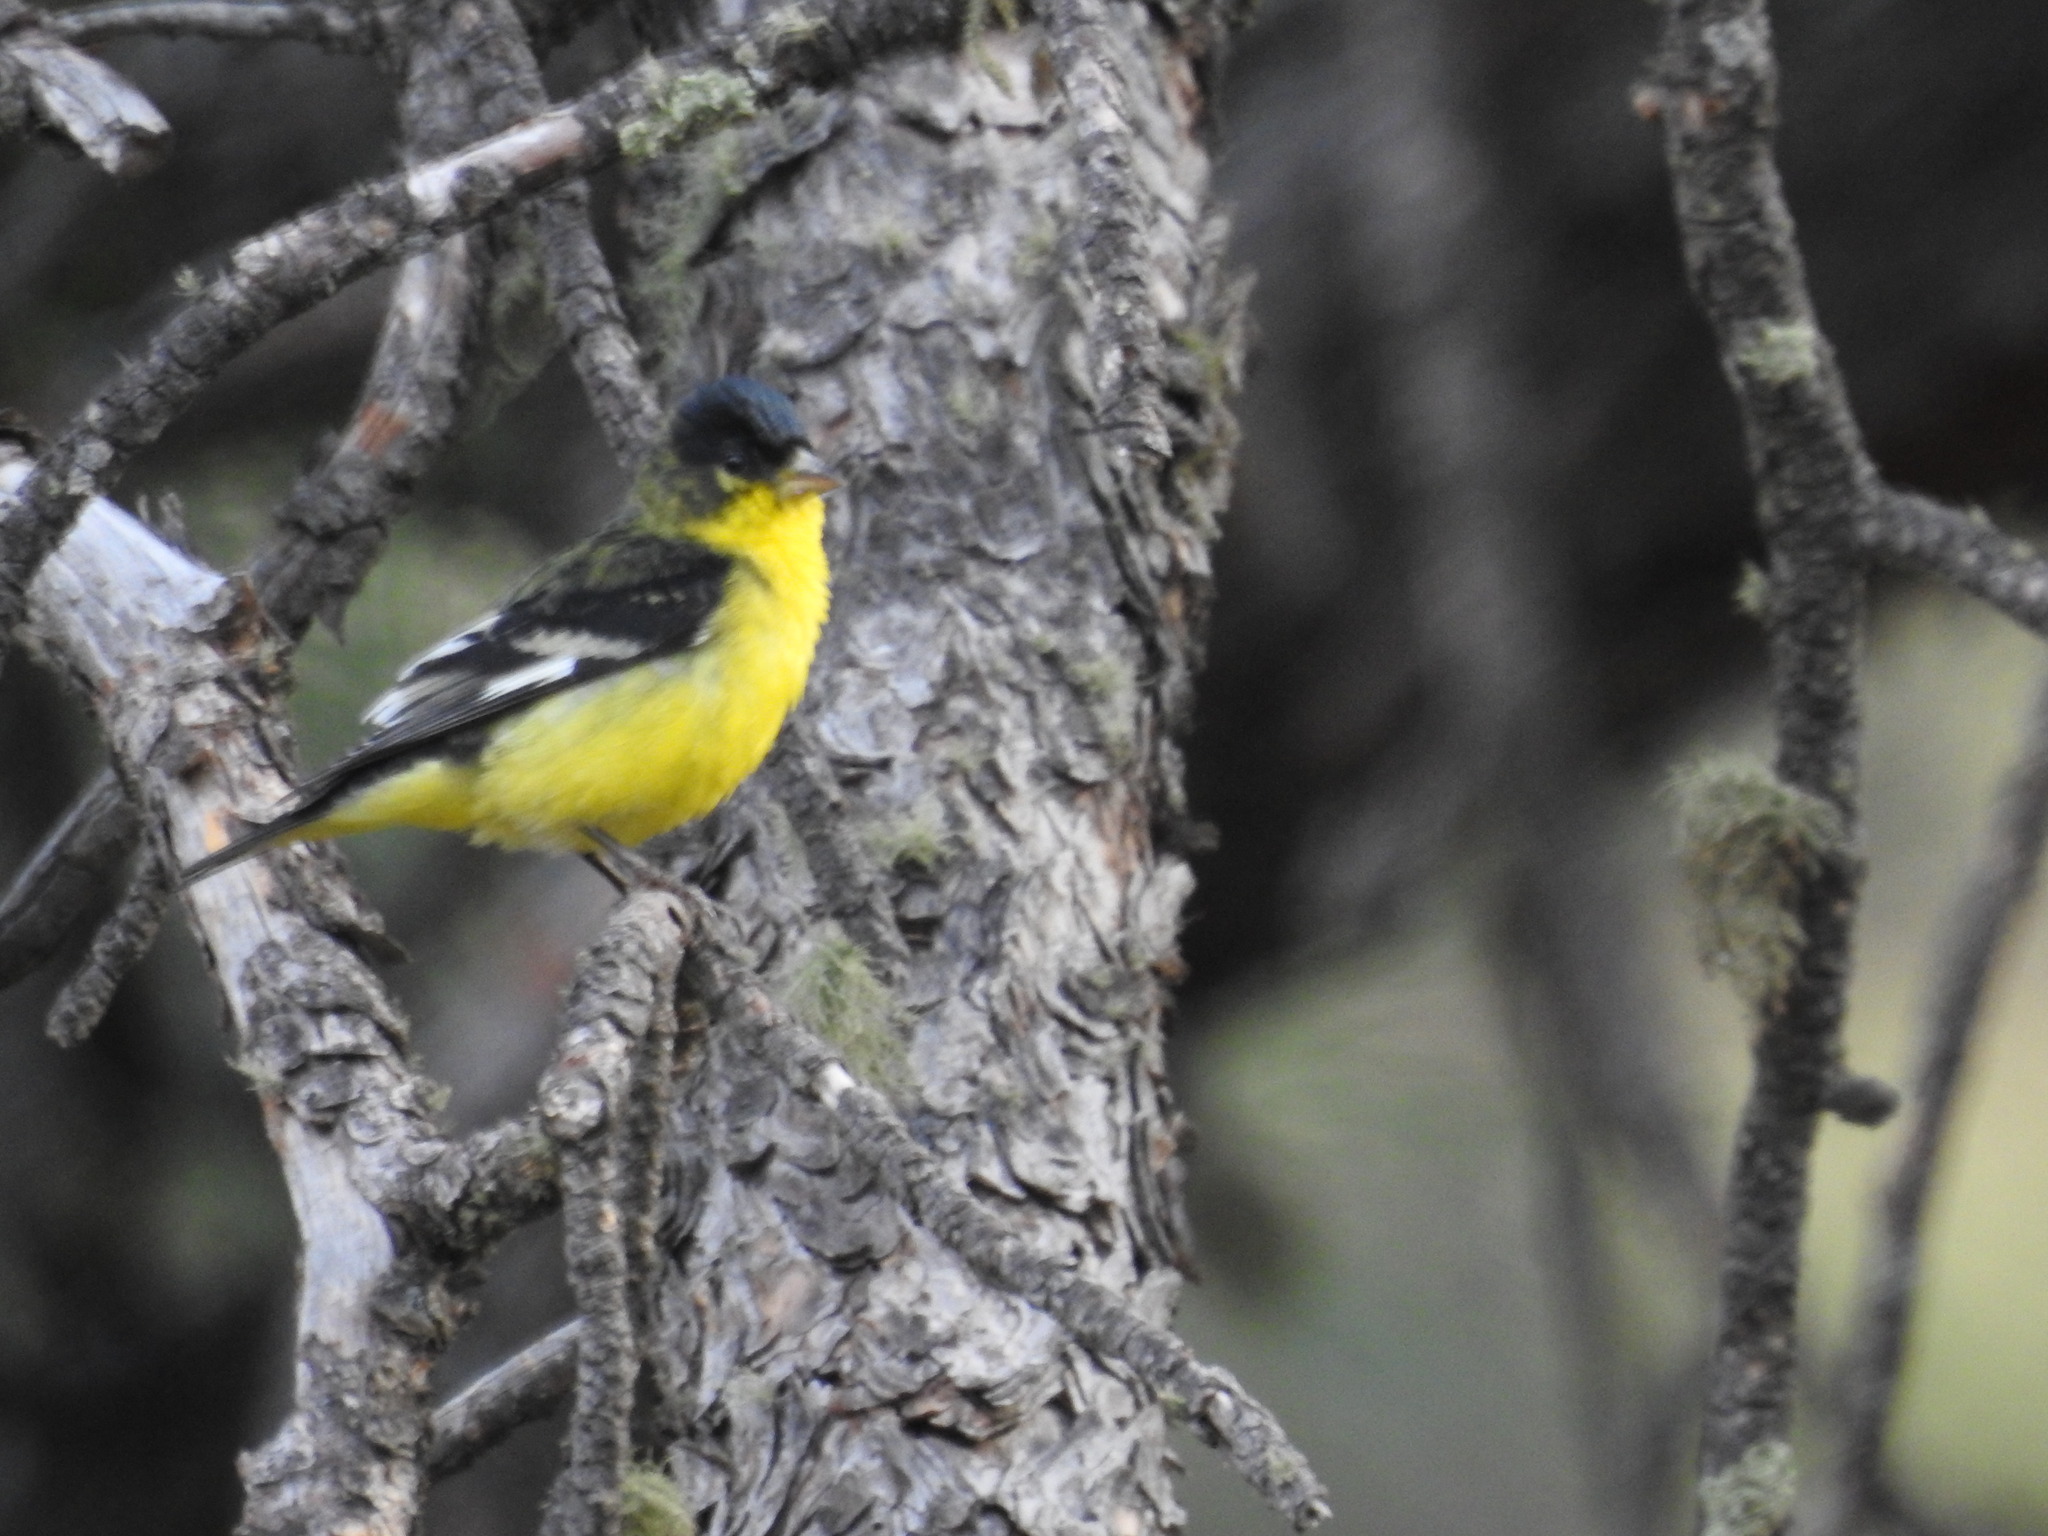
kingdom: Animalia
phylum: Chordata
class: Aves
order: Passeriformes
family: Fringillidae
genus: Spinus
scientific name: Spinus psaltria
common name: Lesser goldfinch
